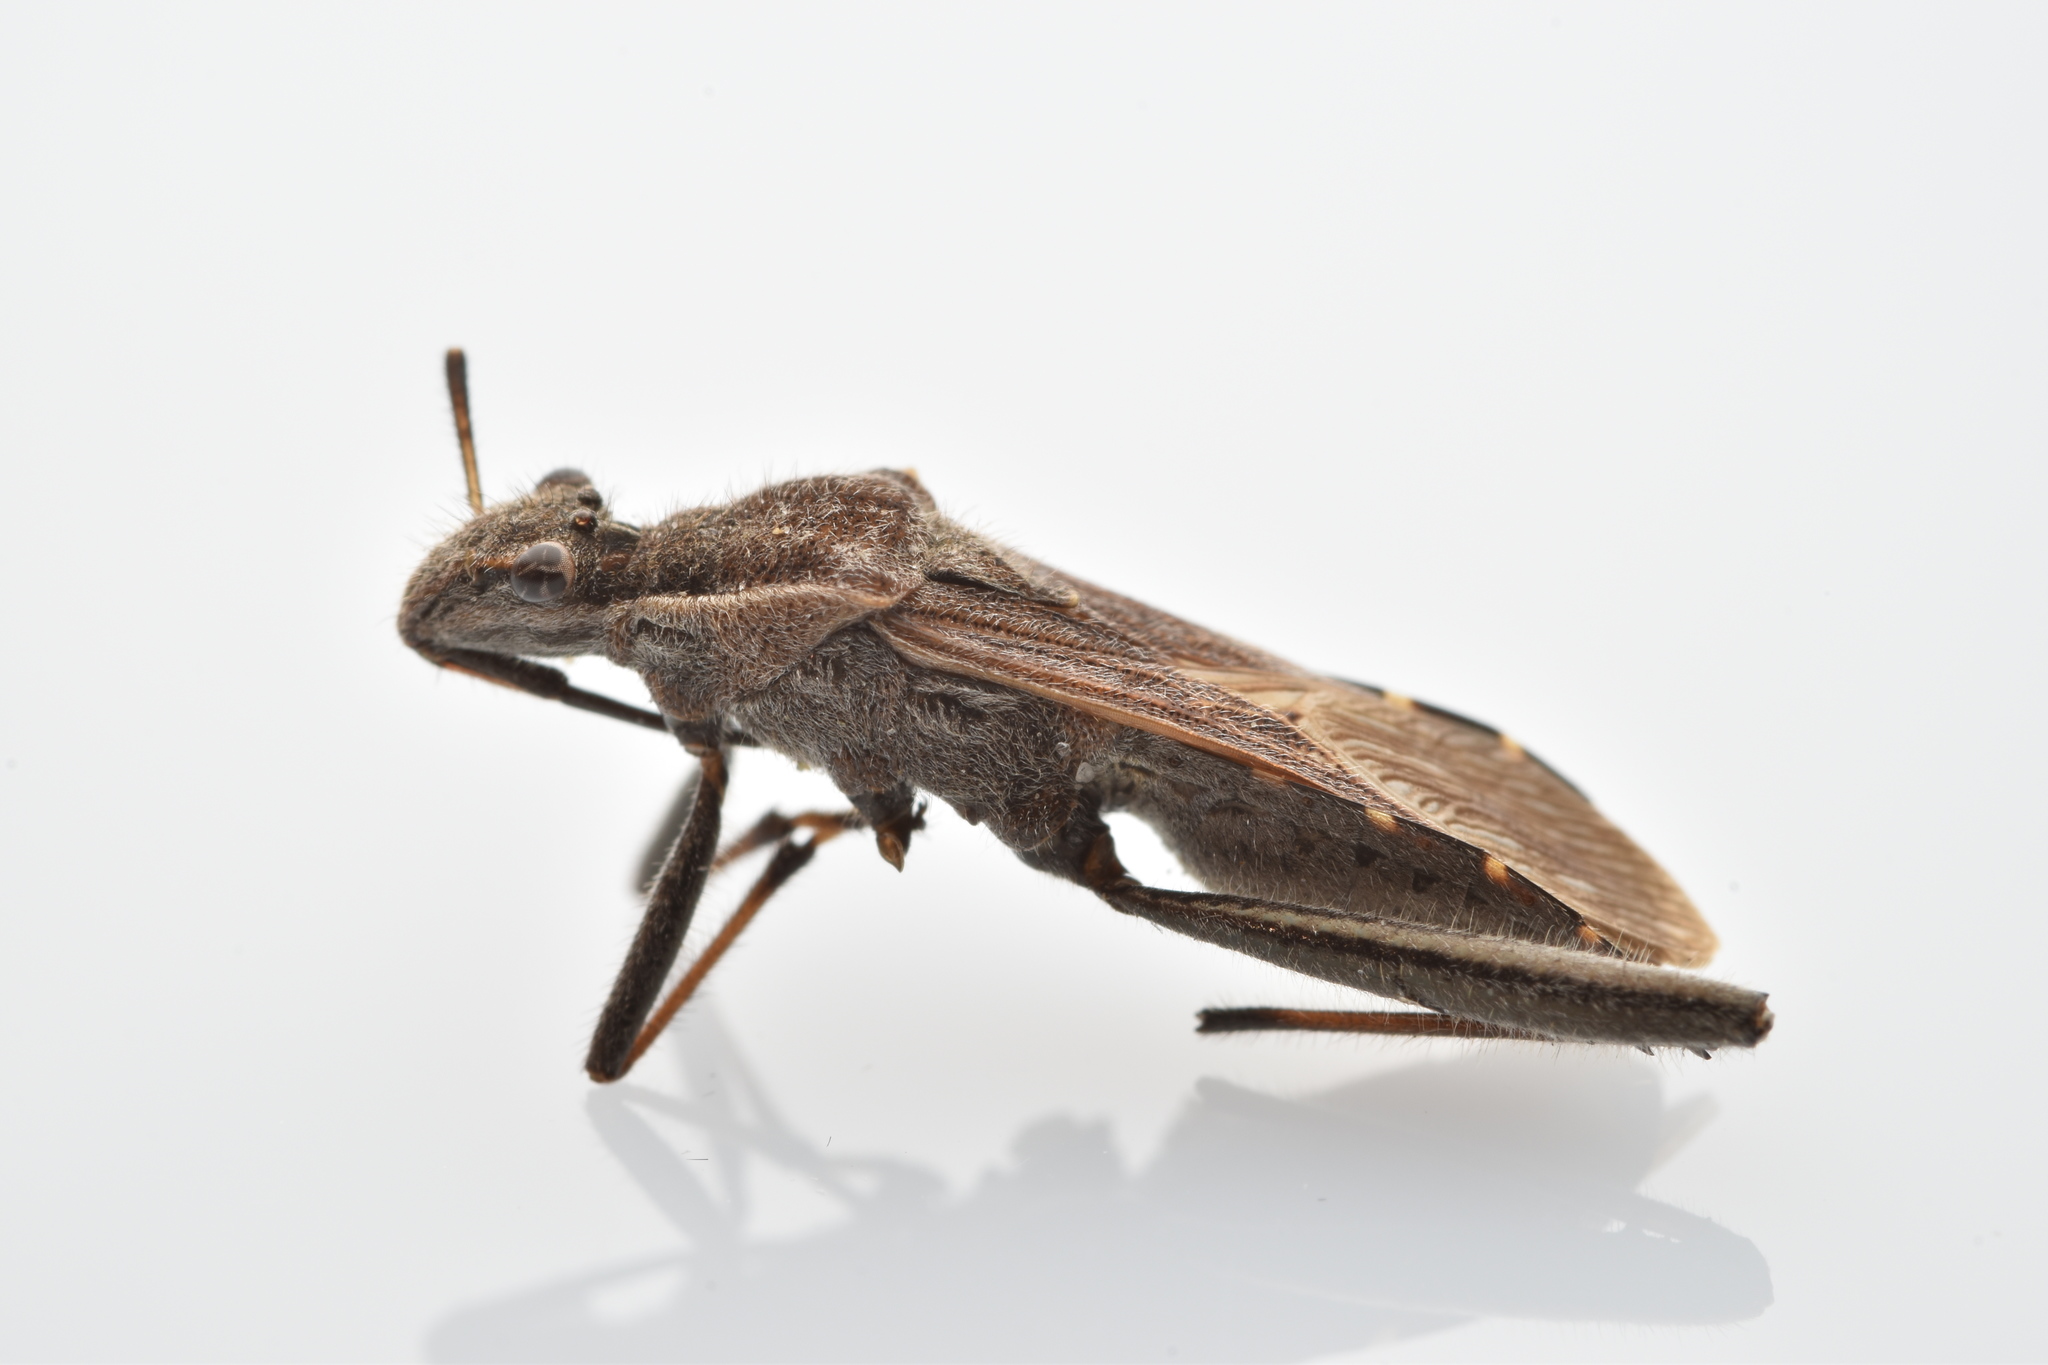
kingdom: Animalia
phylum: Arthropoda
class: Insecta
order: Hemiptera
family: Alydidae
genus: Alydus
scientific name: Alydus pilosulus
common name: Broad-headed bug
